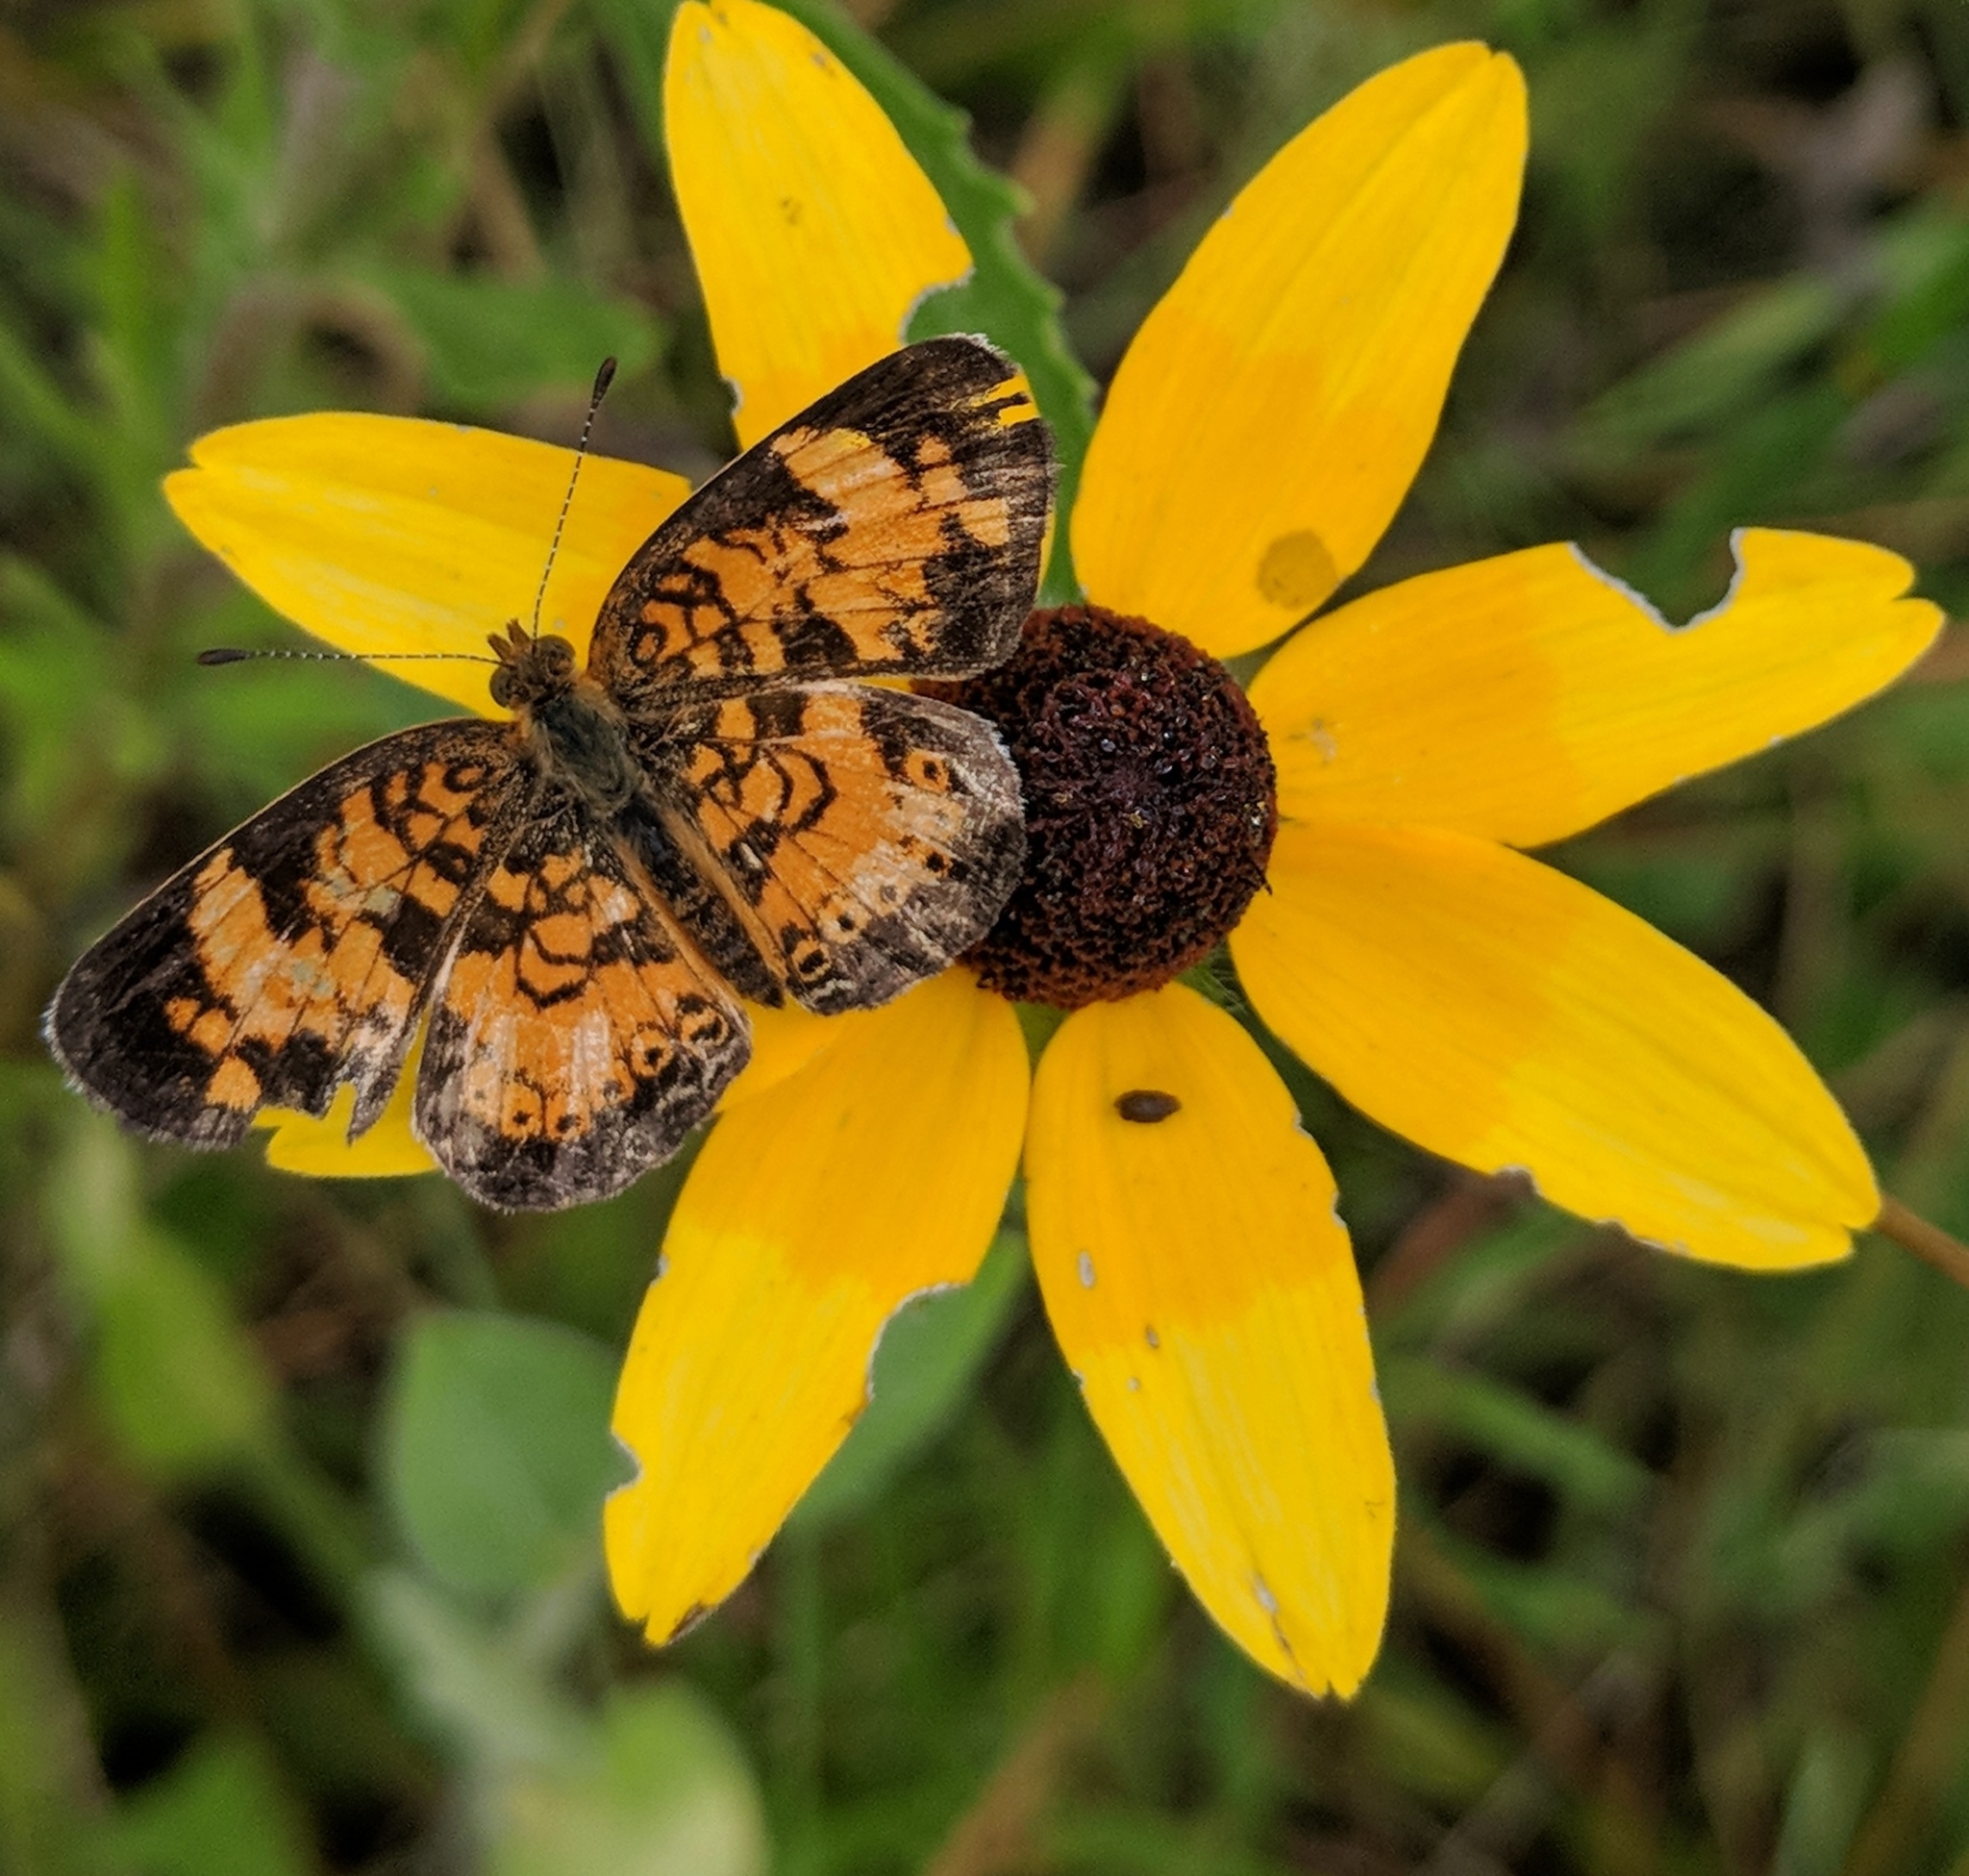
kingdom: Animalia
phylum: Arthropoda
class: Insecta
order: Lepidoptera
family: Nymphalidae
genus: Phyciodes
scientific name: Phyciodes tharos
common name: Pearl crescent
